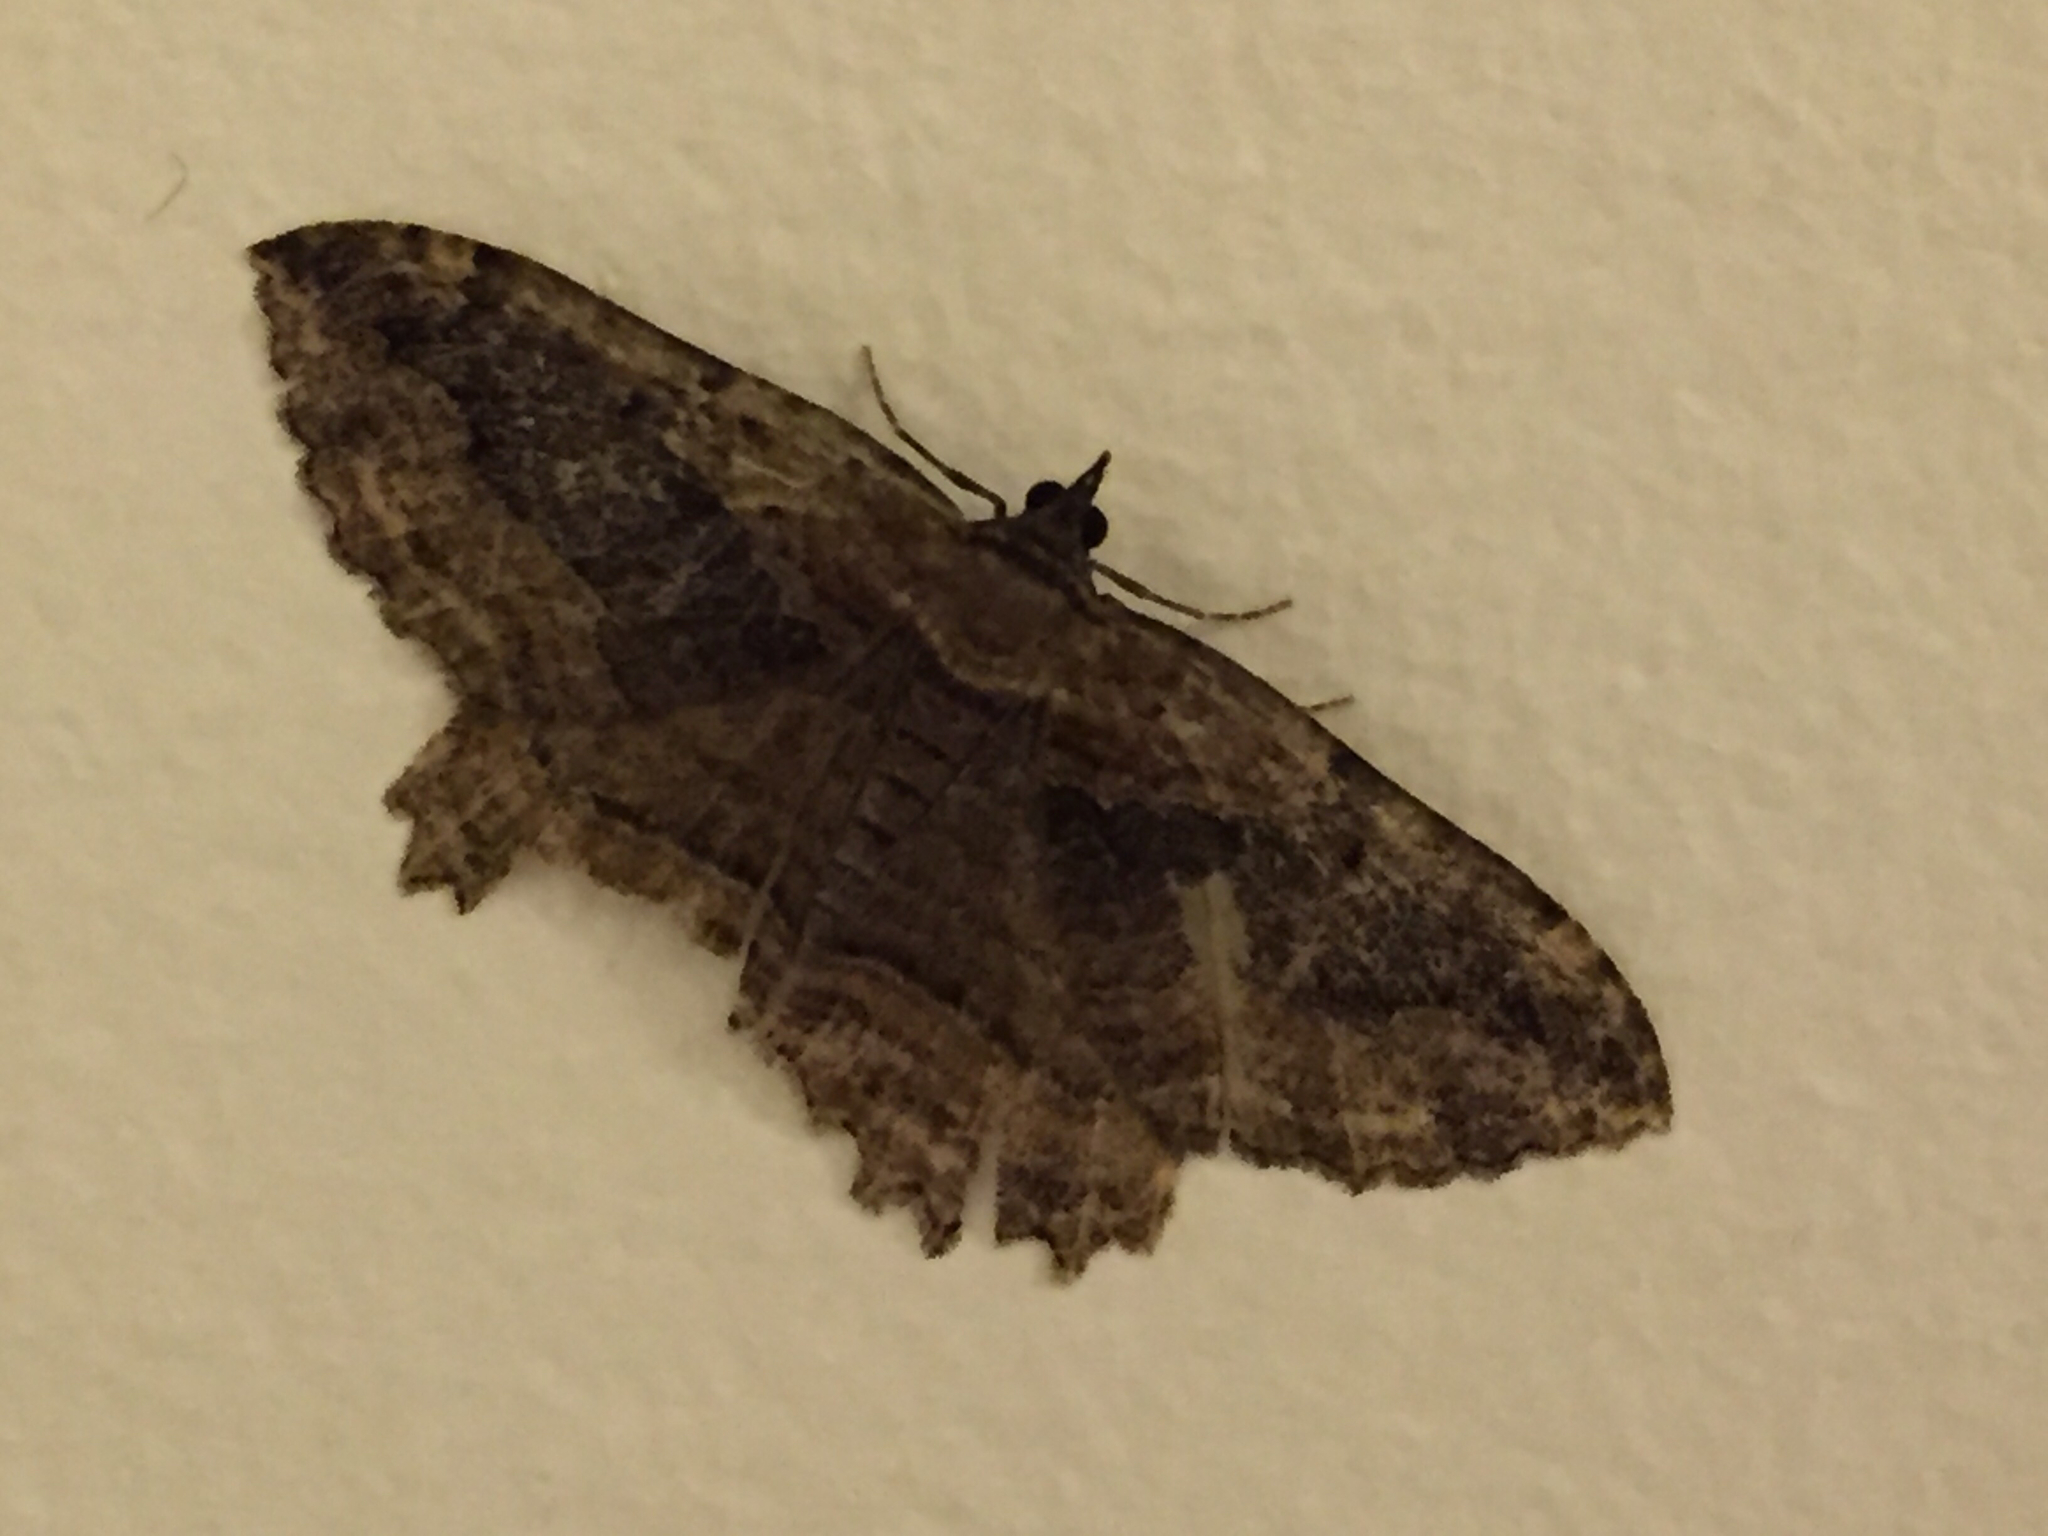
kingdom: Animalia
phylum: Arthropoda
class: Insecta
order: Lepidoptera
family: Geometridae
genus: Philereme
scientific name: Philereme transversata
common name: Dark umber
